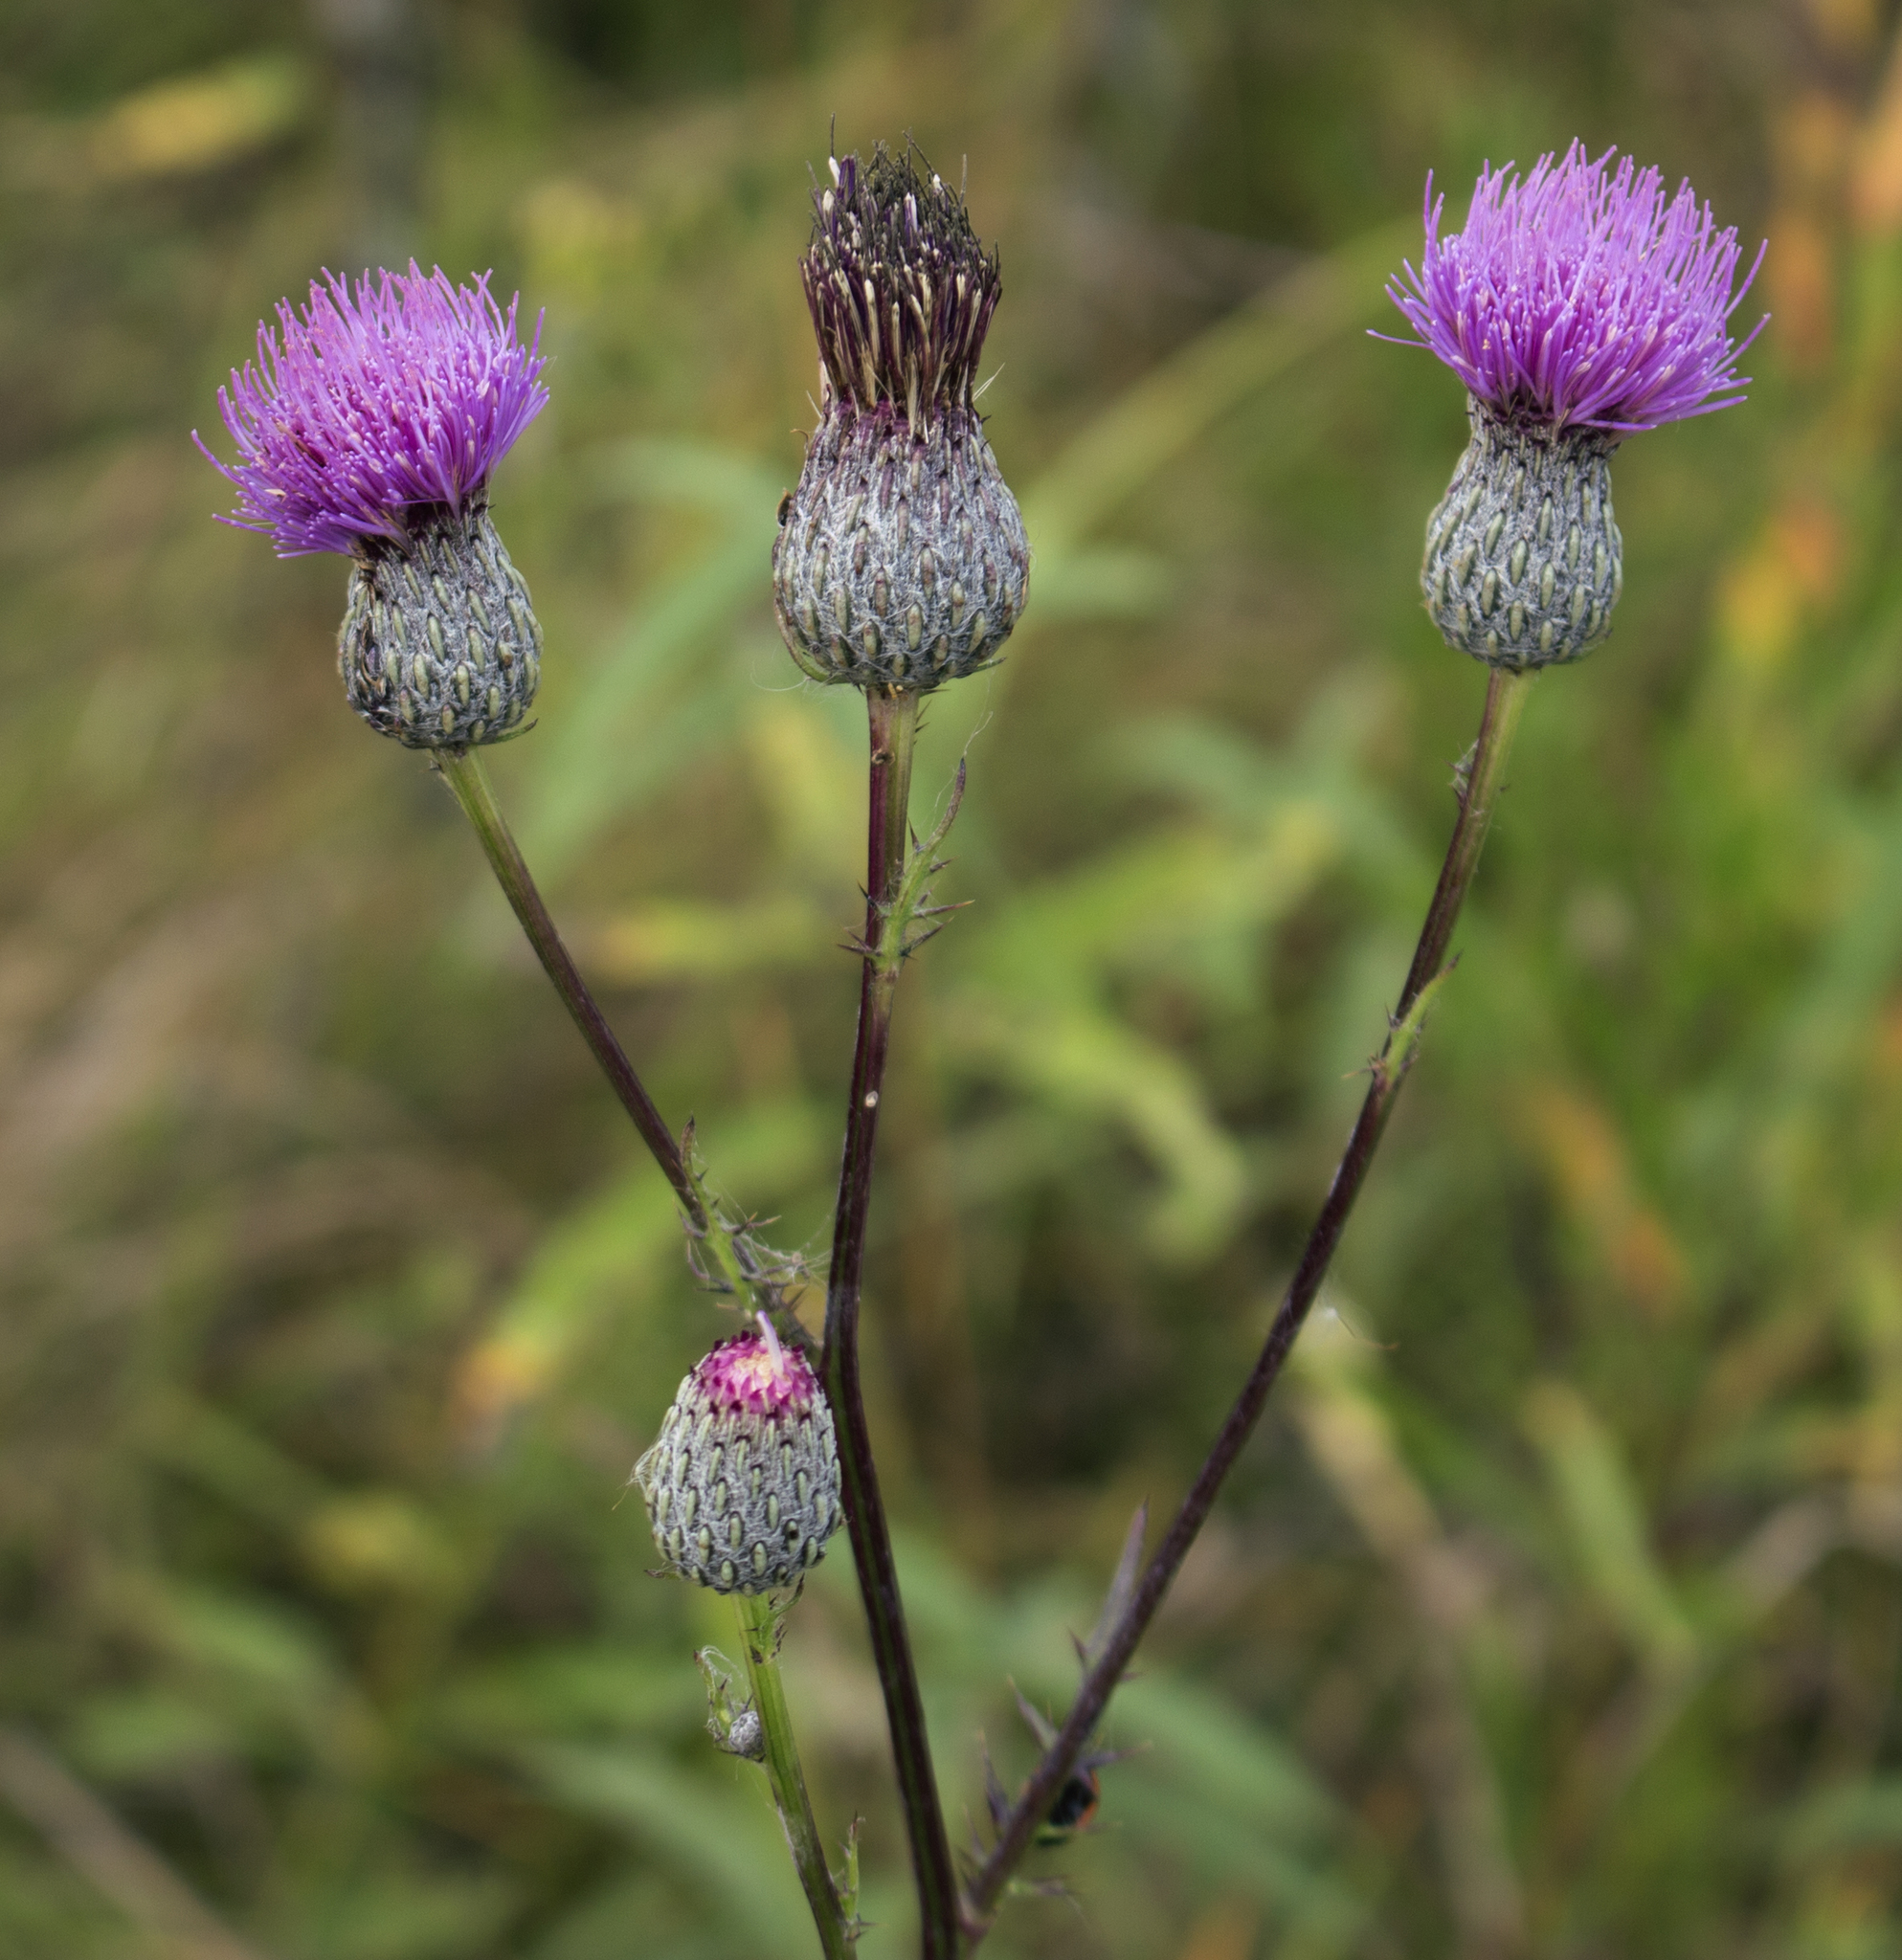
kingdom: Plantae
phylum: Tracheophyta
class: Magnoliopsida
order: Asterales
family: Asteraceae
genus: Cirsium
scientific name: Cirsium muticum
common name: Dunce-nettle
